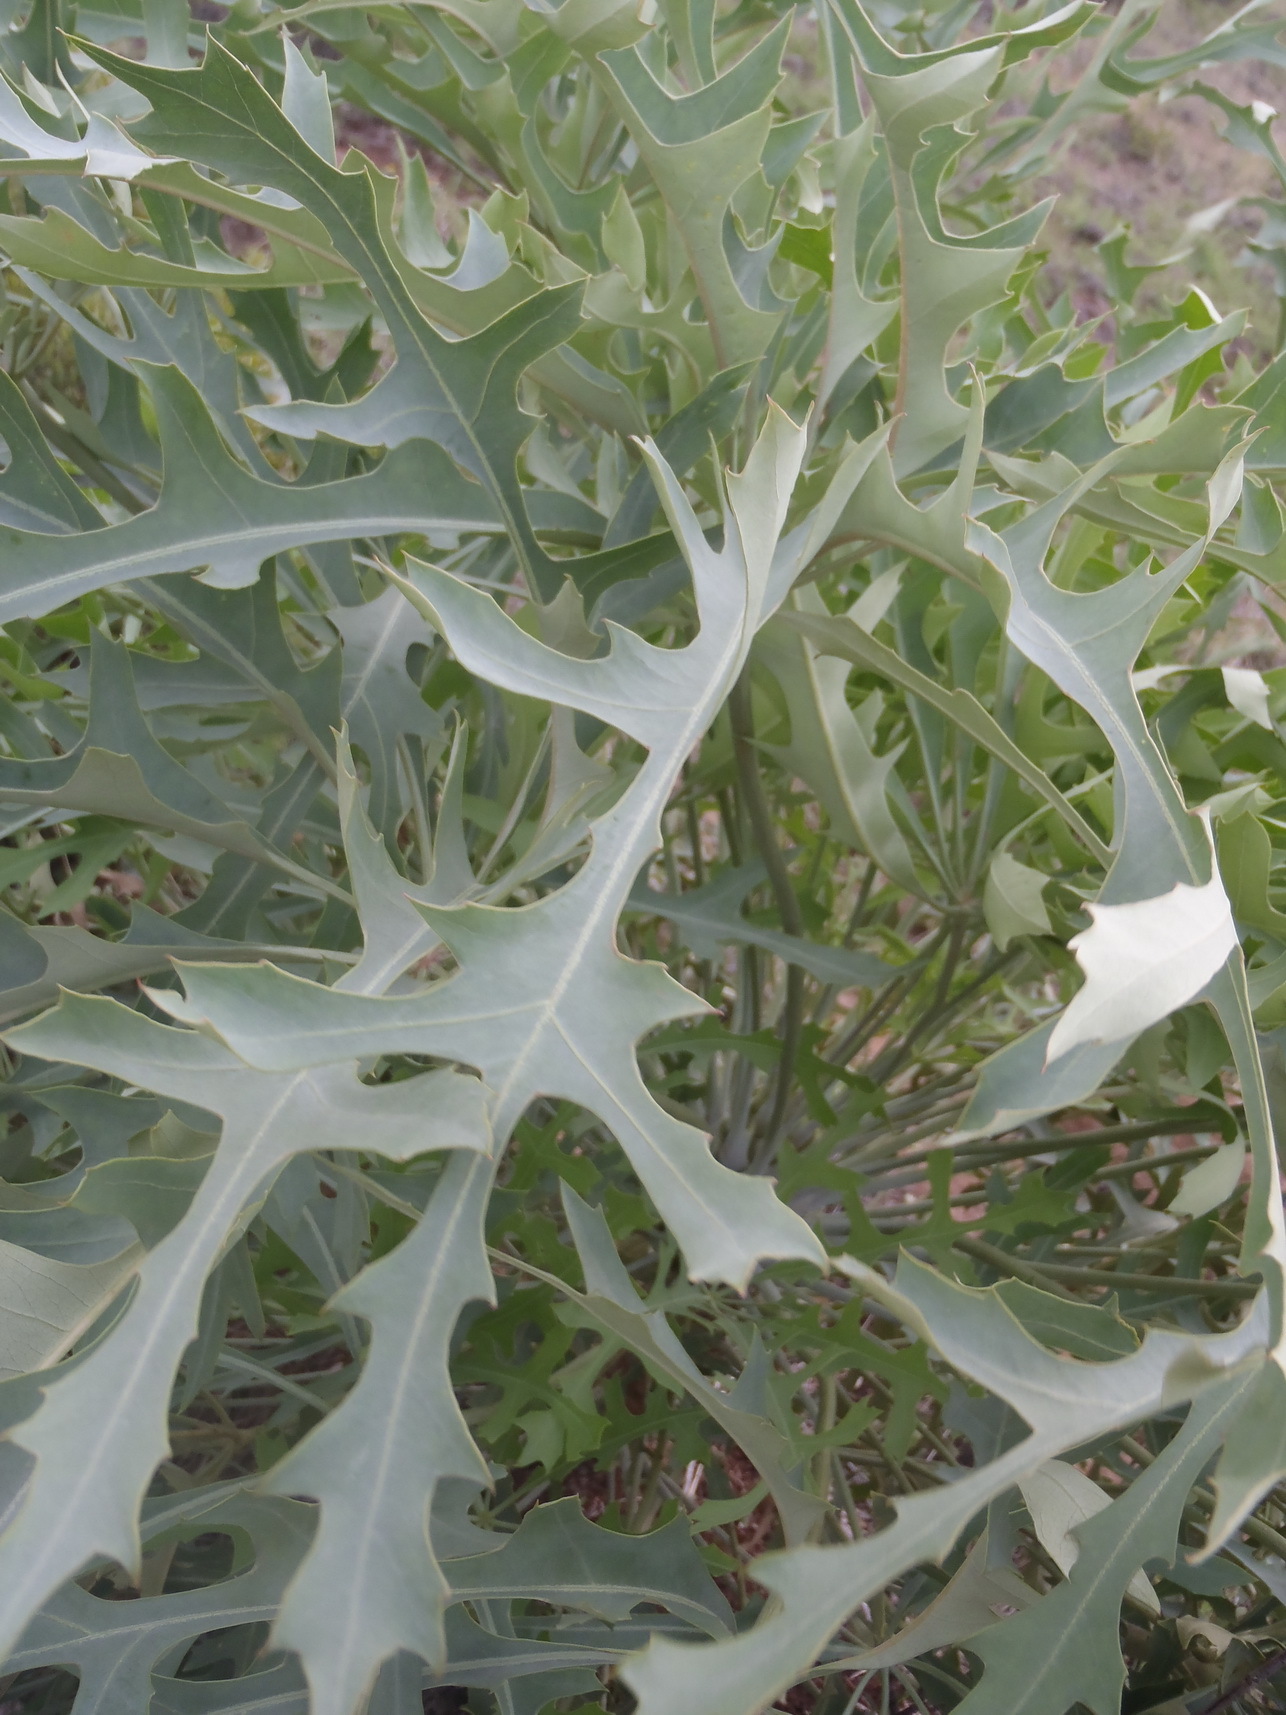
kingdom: Plantae
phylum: Tracheophyta
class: Magnoliopsida
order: Apiales
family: Araliaceae
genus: Cussonia
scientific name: Cussonia paniculata
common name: Cabbagetree
